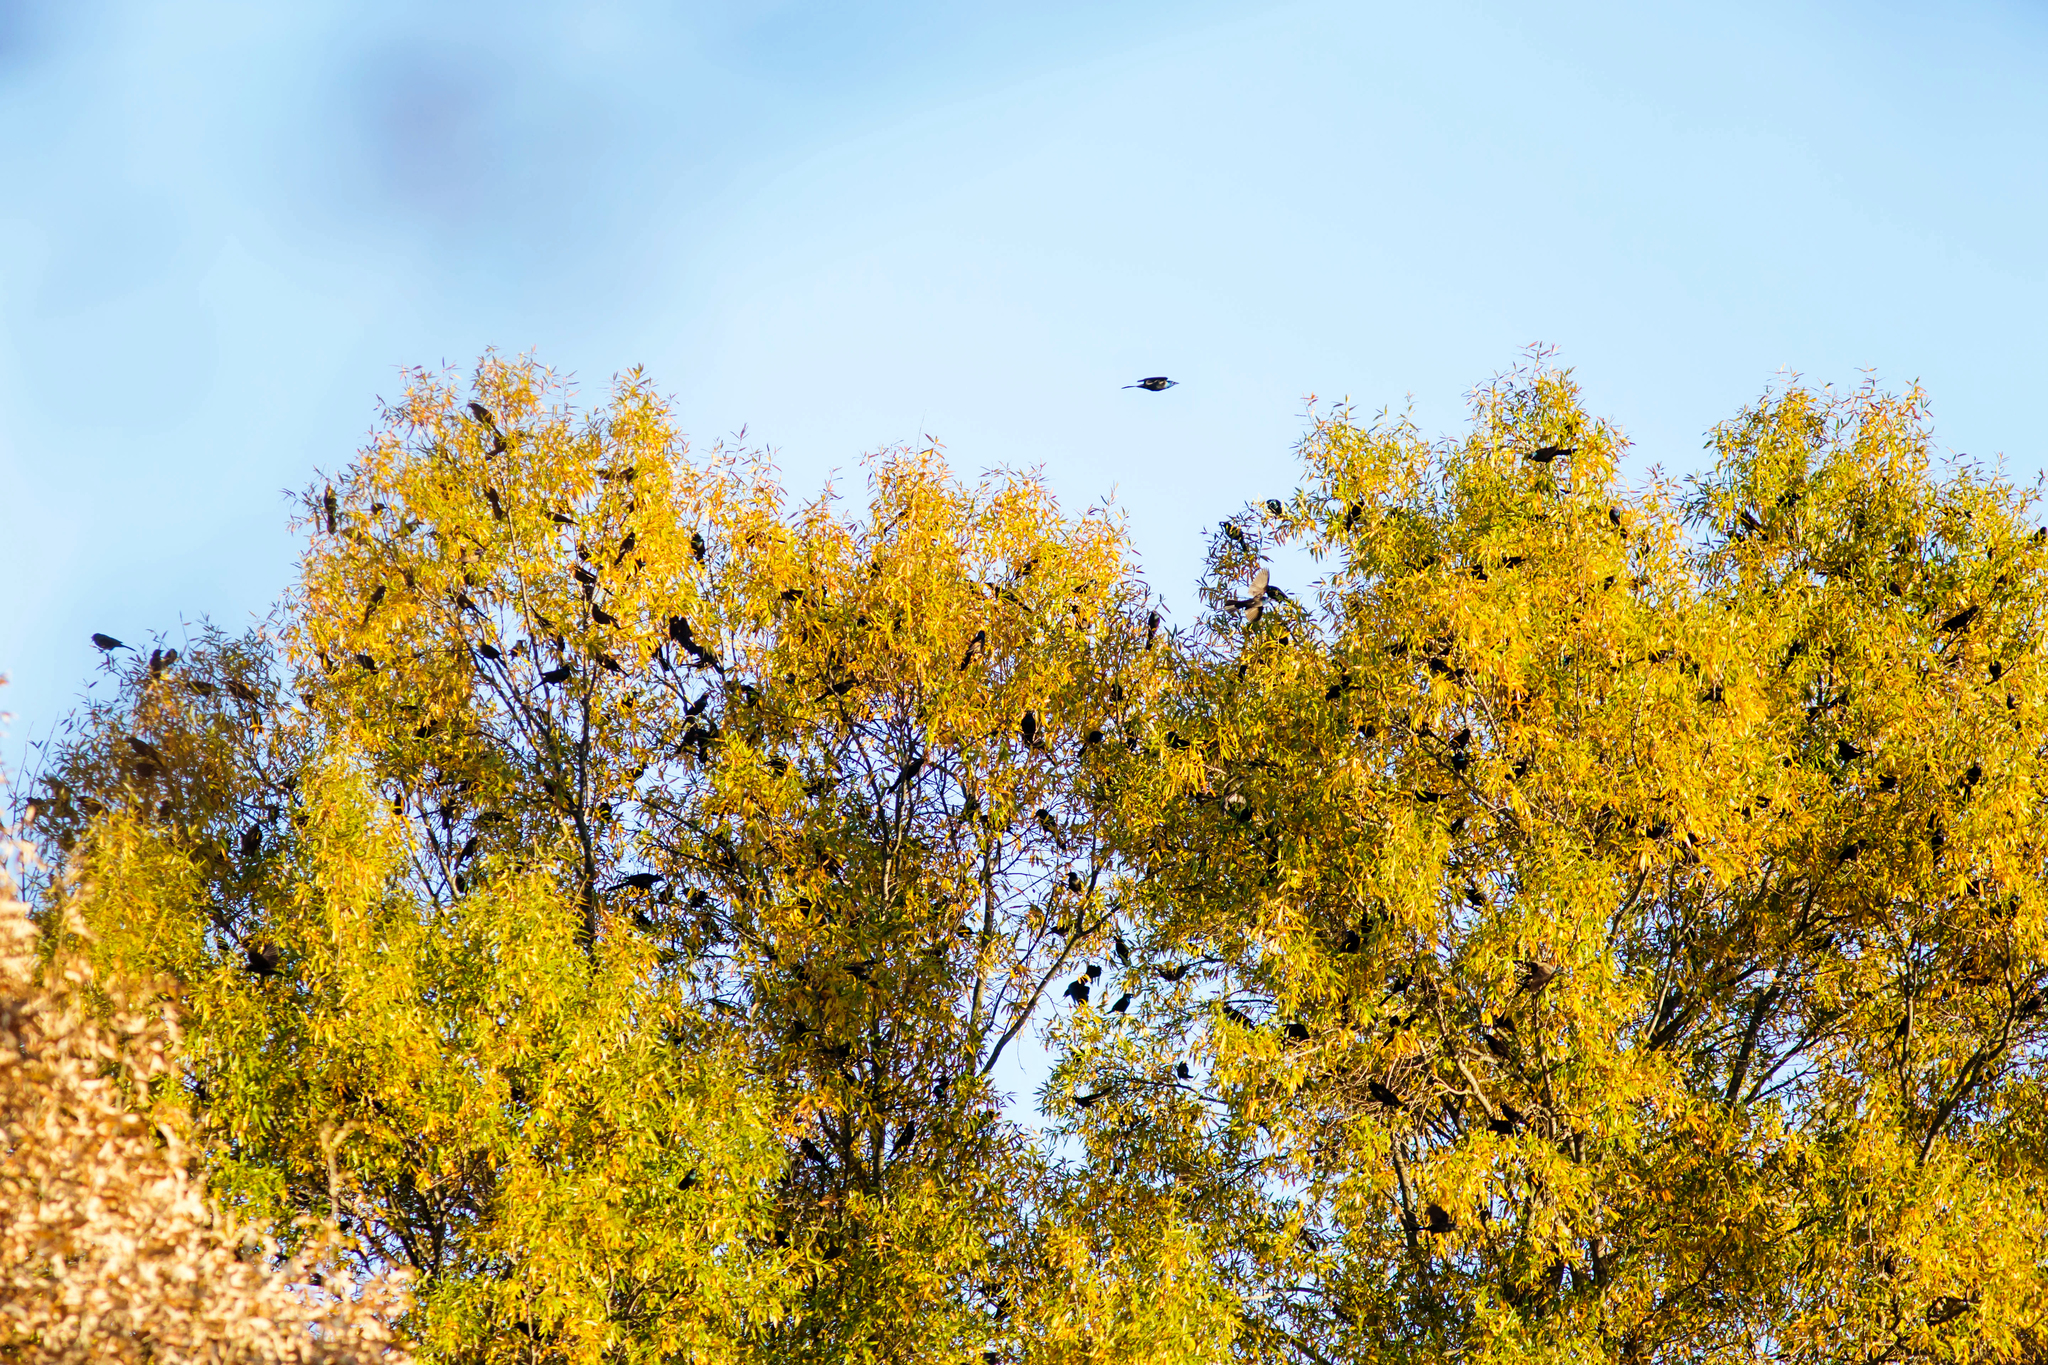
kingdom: Animalia
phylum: Chordata
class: Aves
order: Passeriformes
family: Icteridae
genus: Quiscalus
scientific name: Quiscalus quiscula
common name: Common grackle
